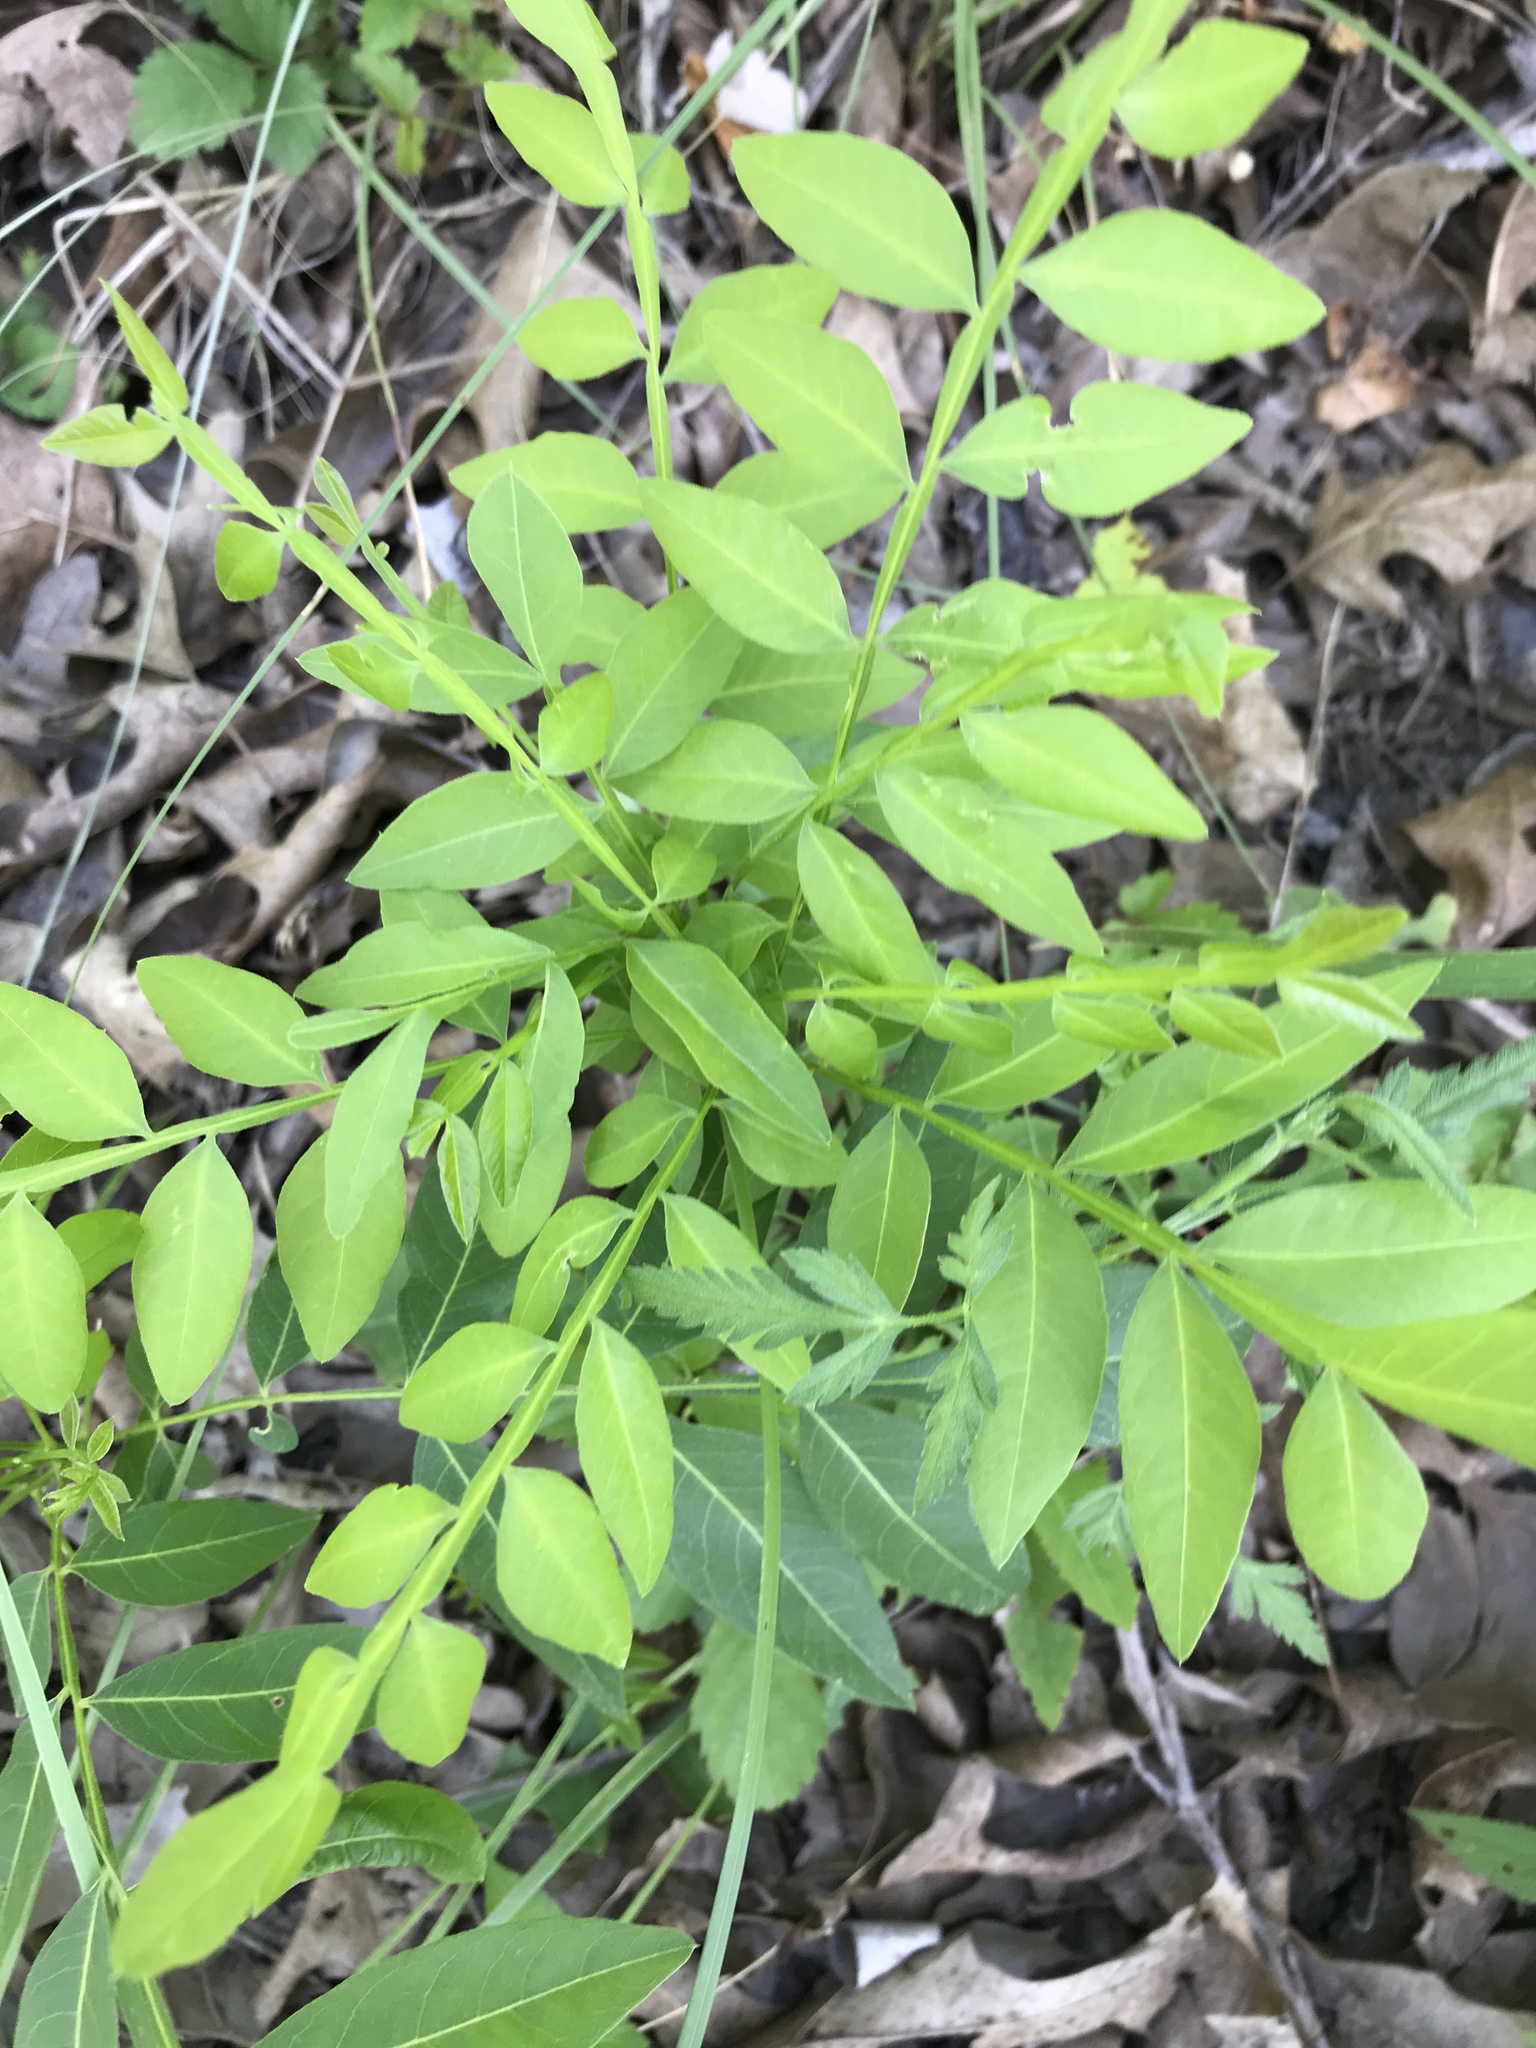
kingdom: Plantae
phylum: Tracheophyta
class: Magnoliopsida
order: Sapindales
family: Sapindaceae
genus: Sapindus
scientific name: Sapindus drummondii
